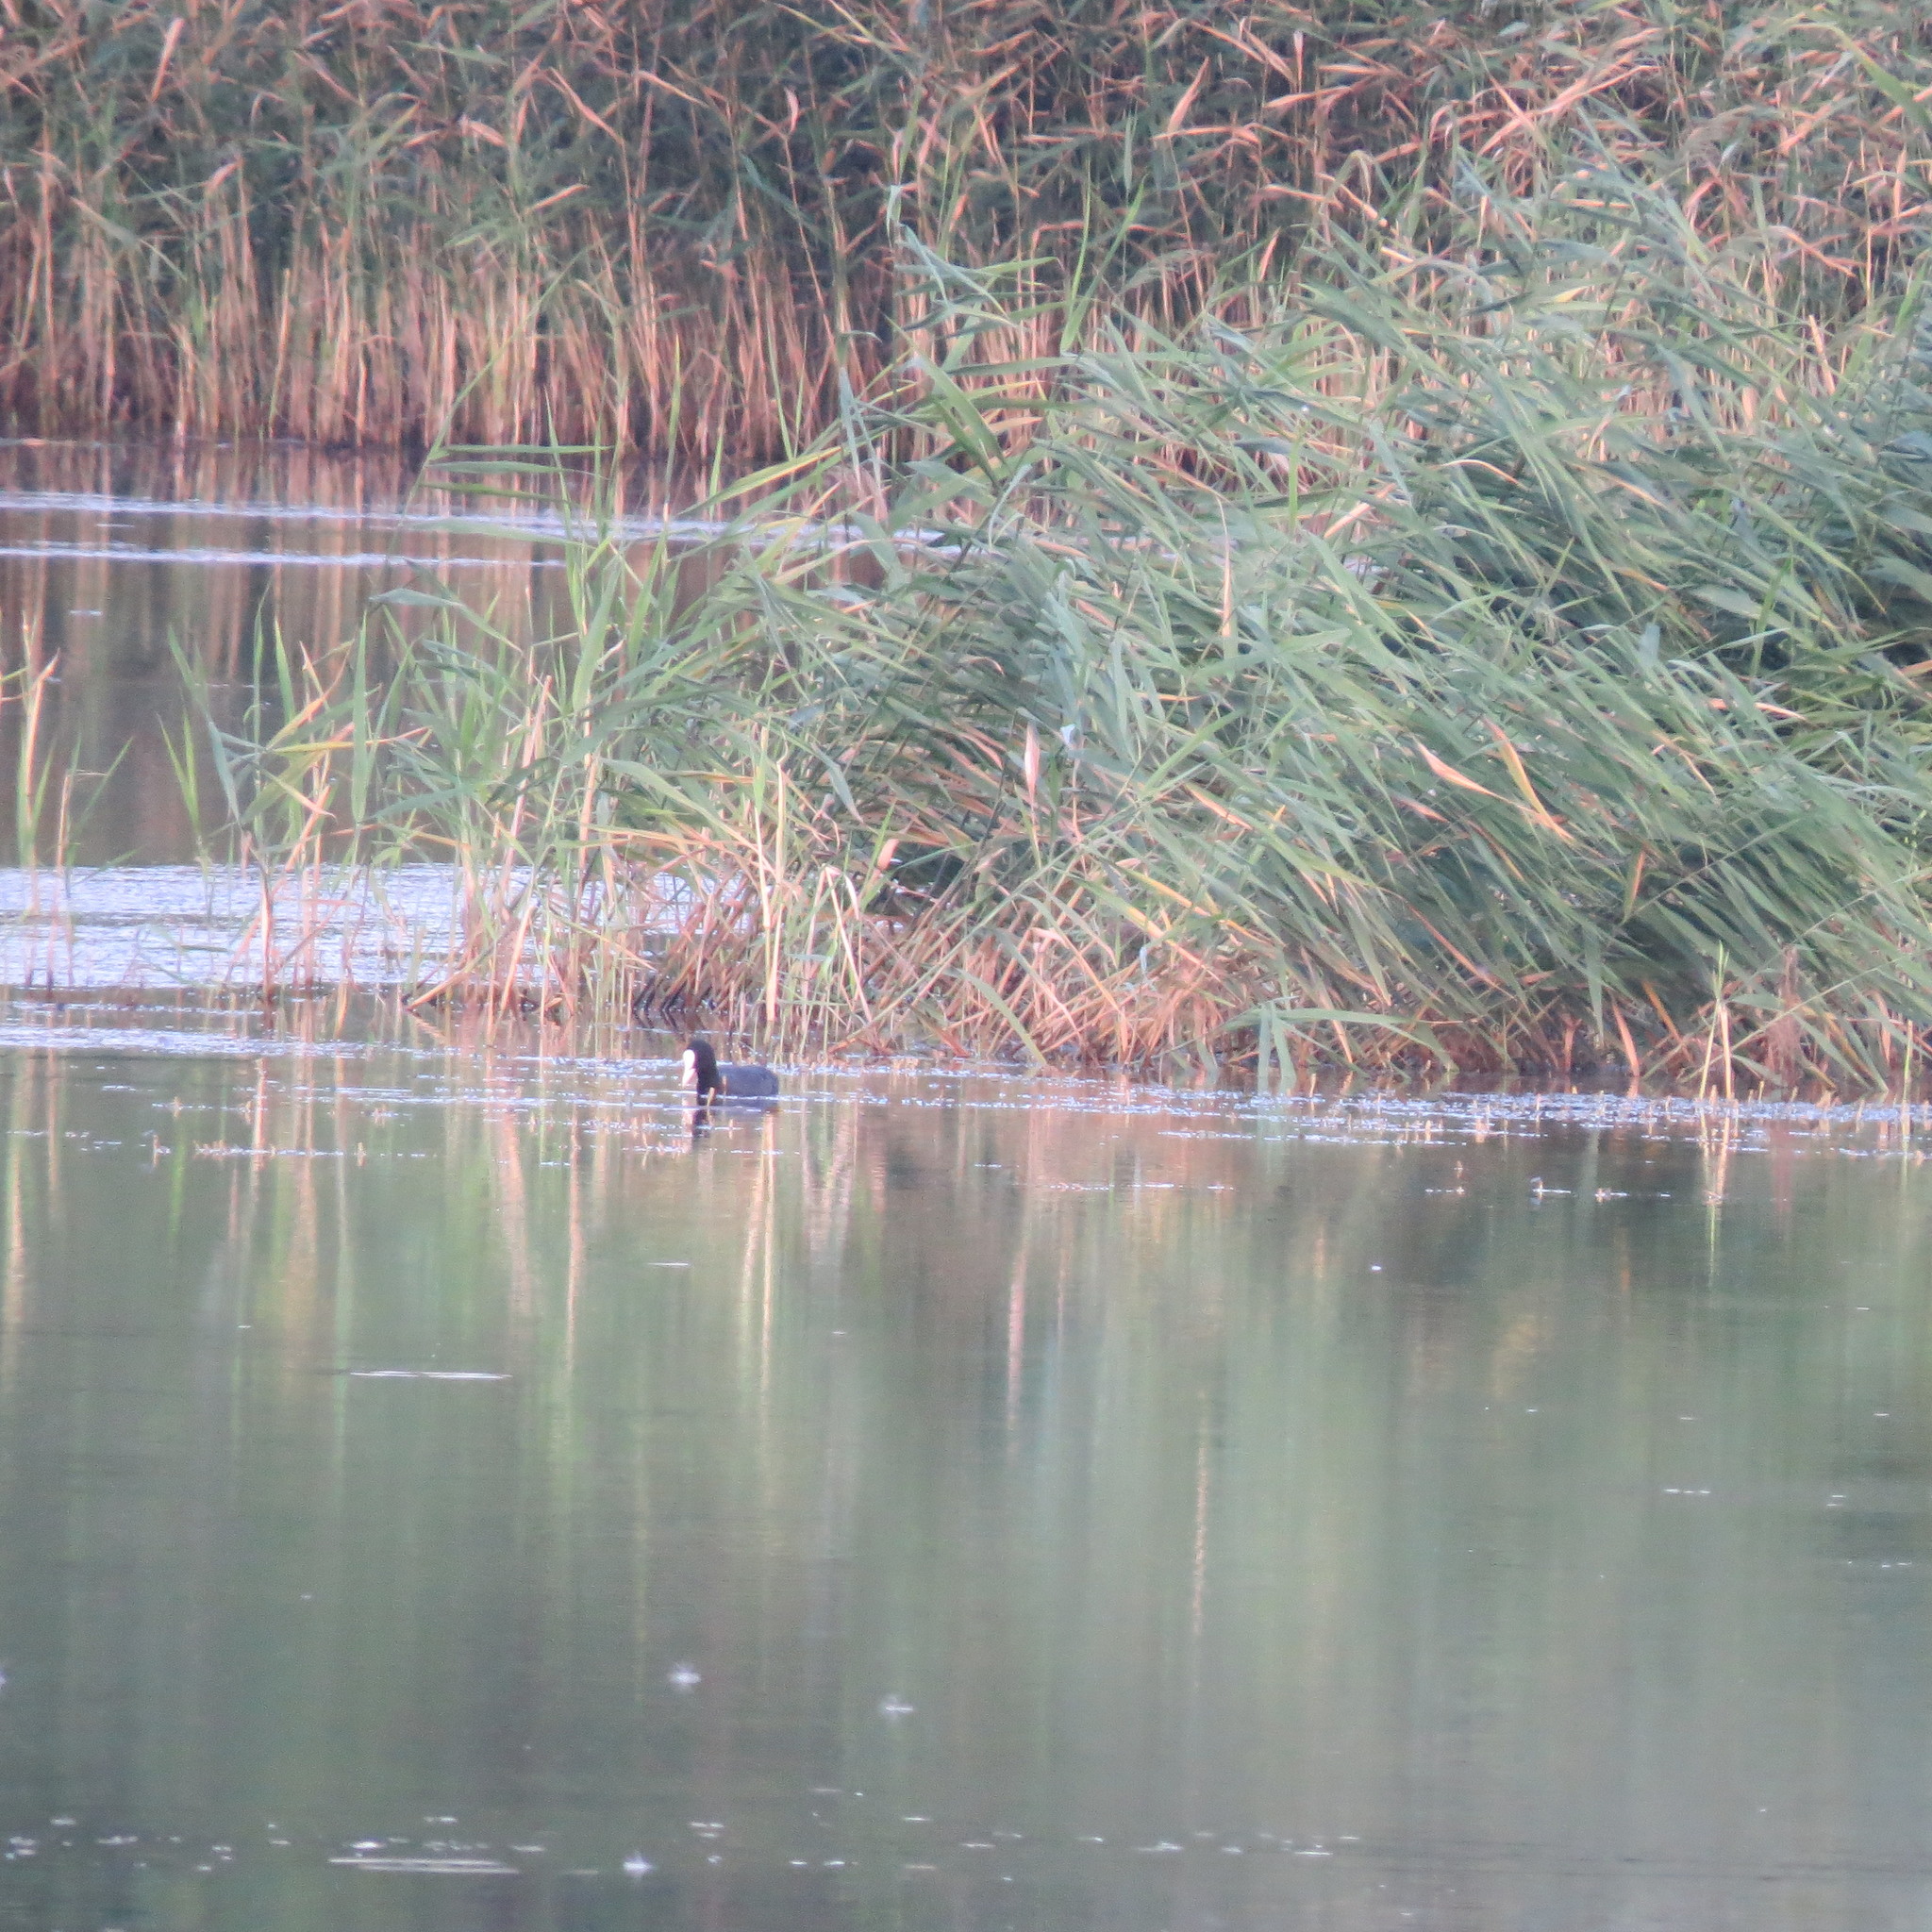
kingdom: Animalia
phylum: Chordata
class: Aves
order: Gruiformes
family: Rallidae
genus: Fulica
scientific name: Fulica atra
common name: Eurasian coot
